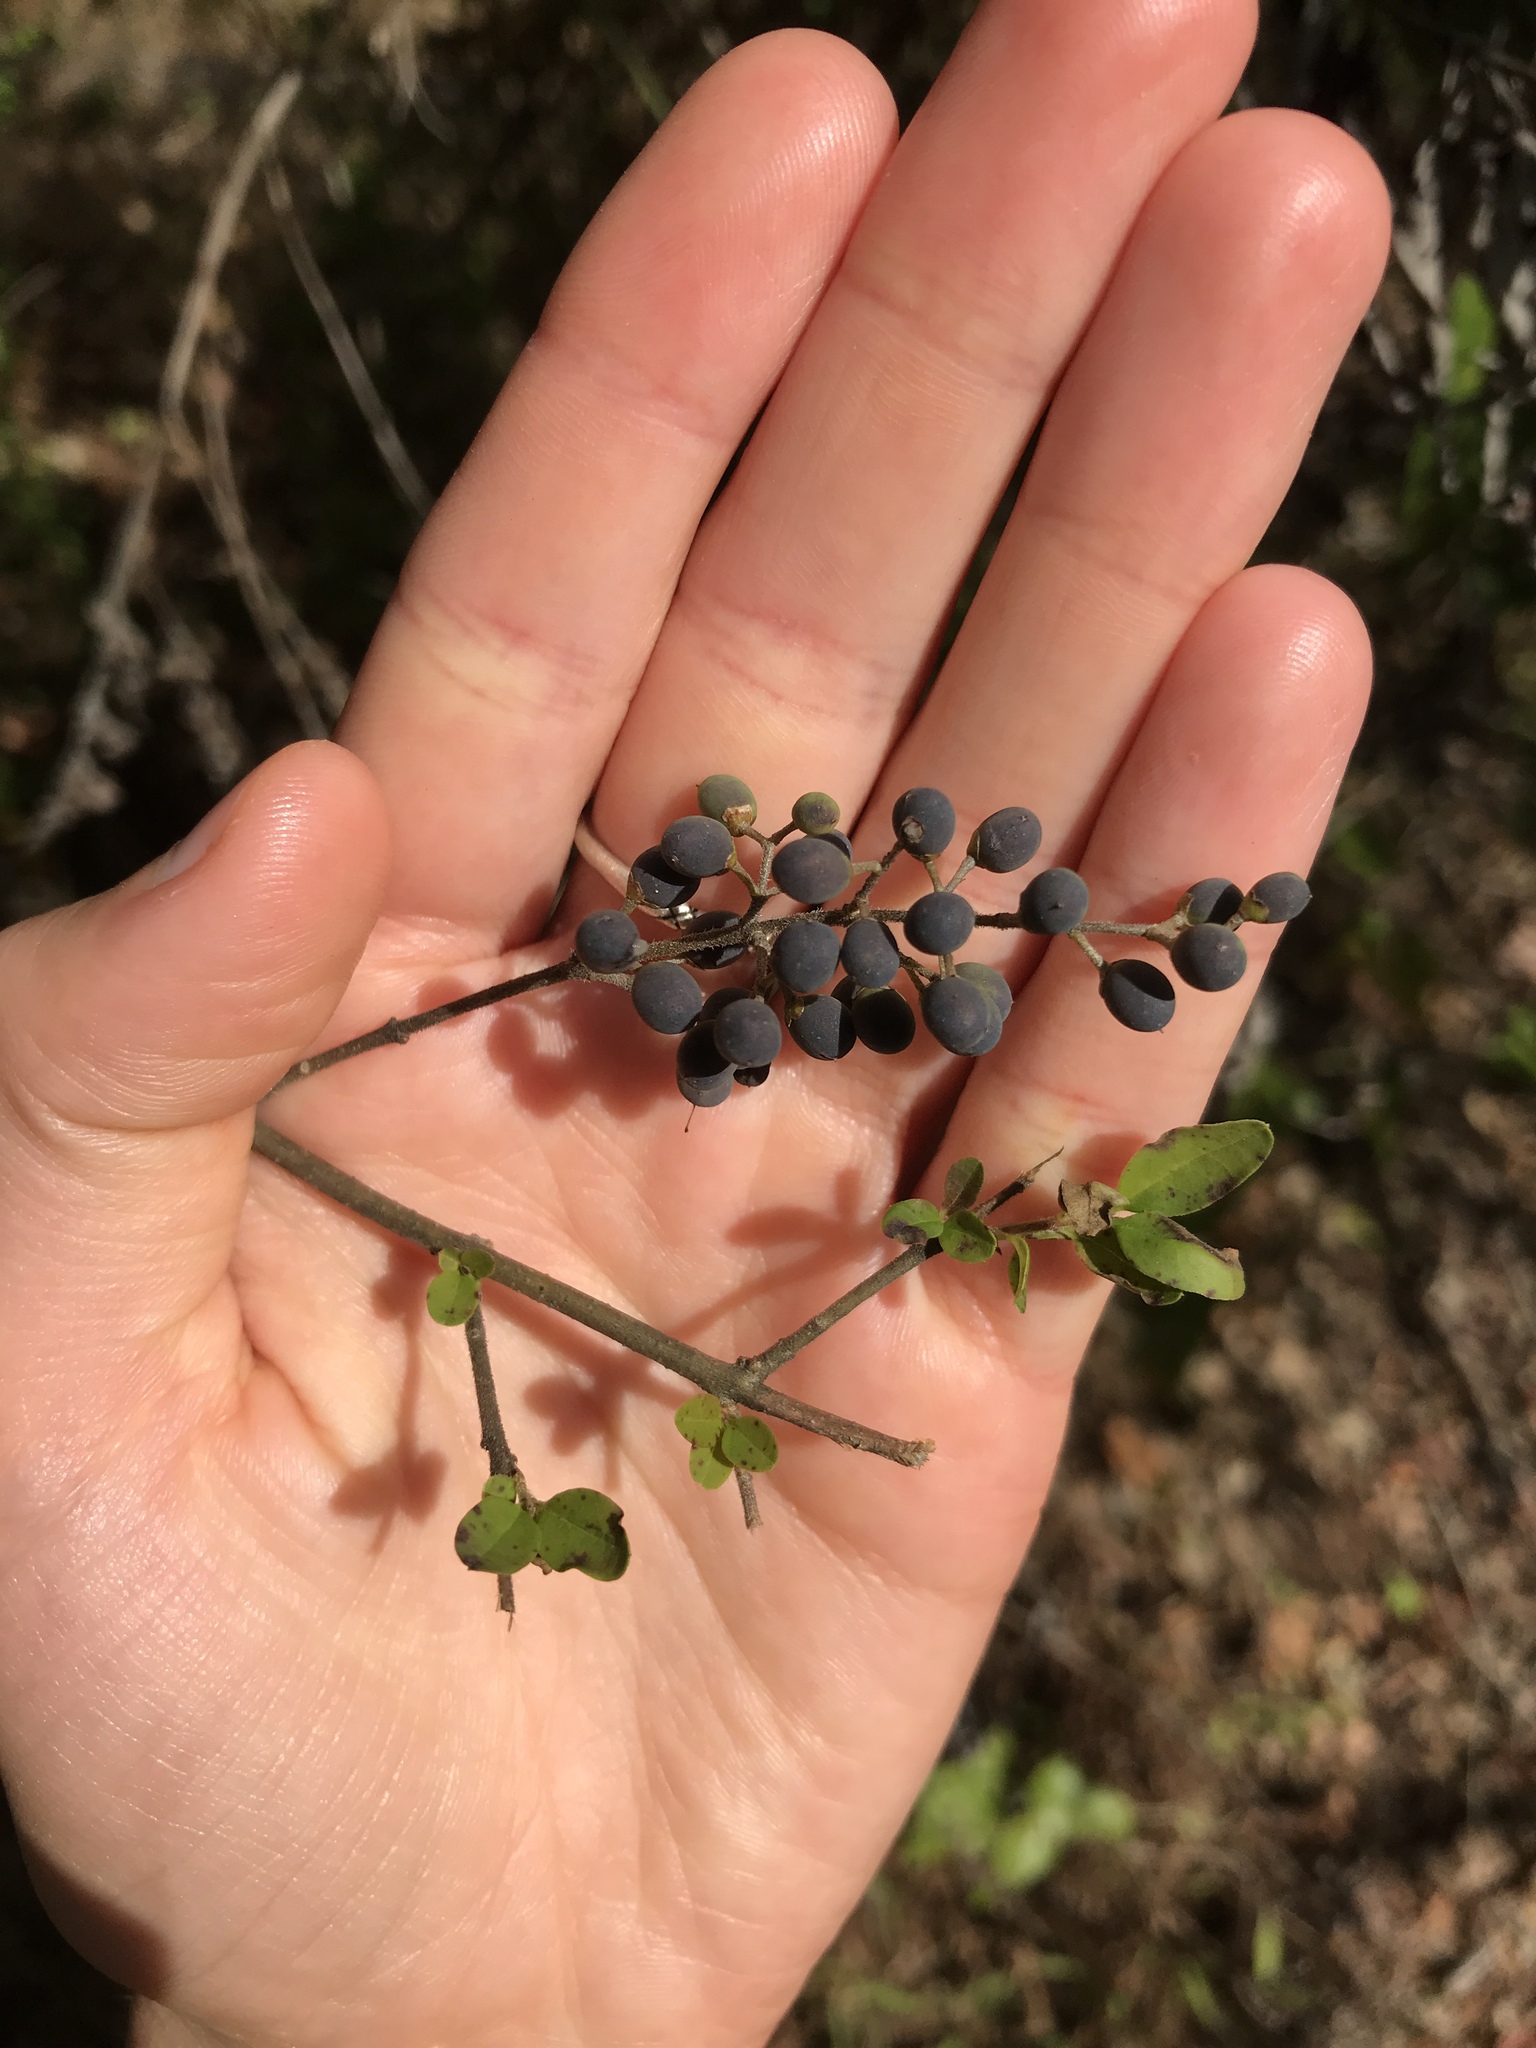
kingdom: Plantae
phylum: Tracheophyta
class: Magnoliopsida
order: Lamiales
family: Oleaceae
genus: Ligustrum
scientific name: Ligustrum sinense
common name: Chinese privet
